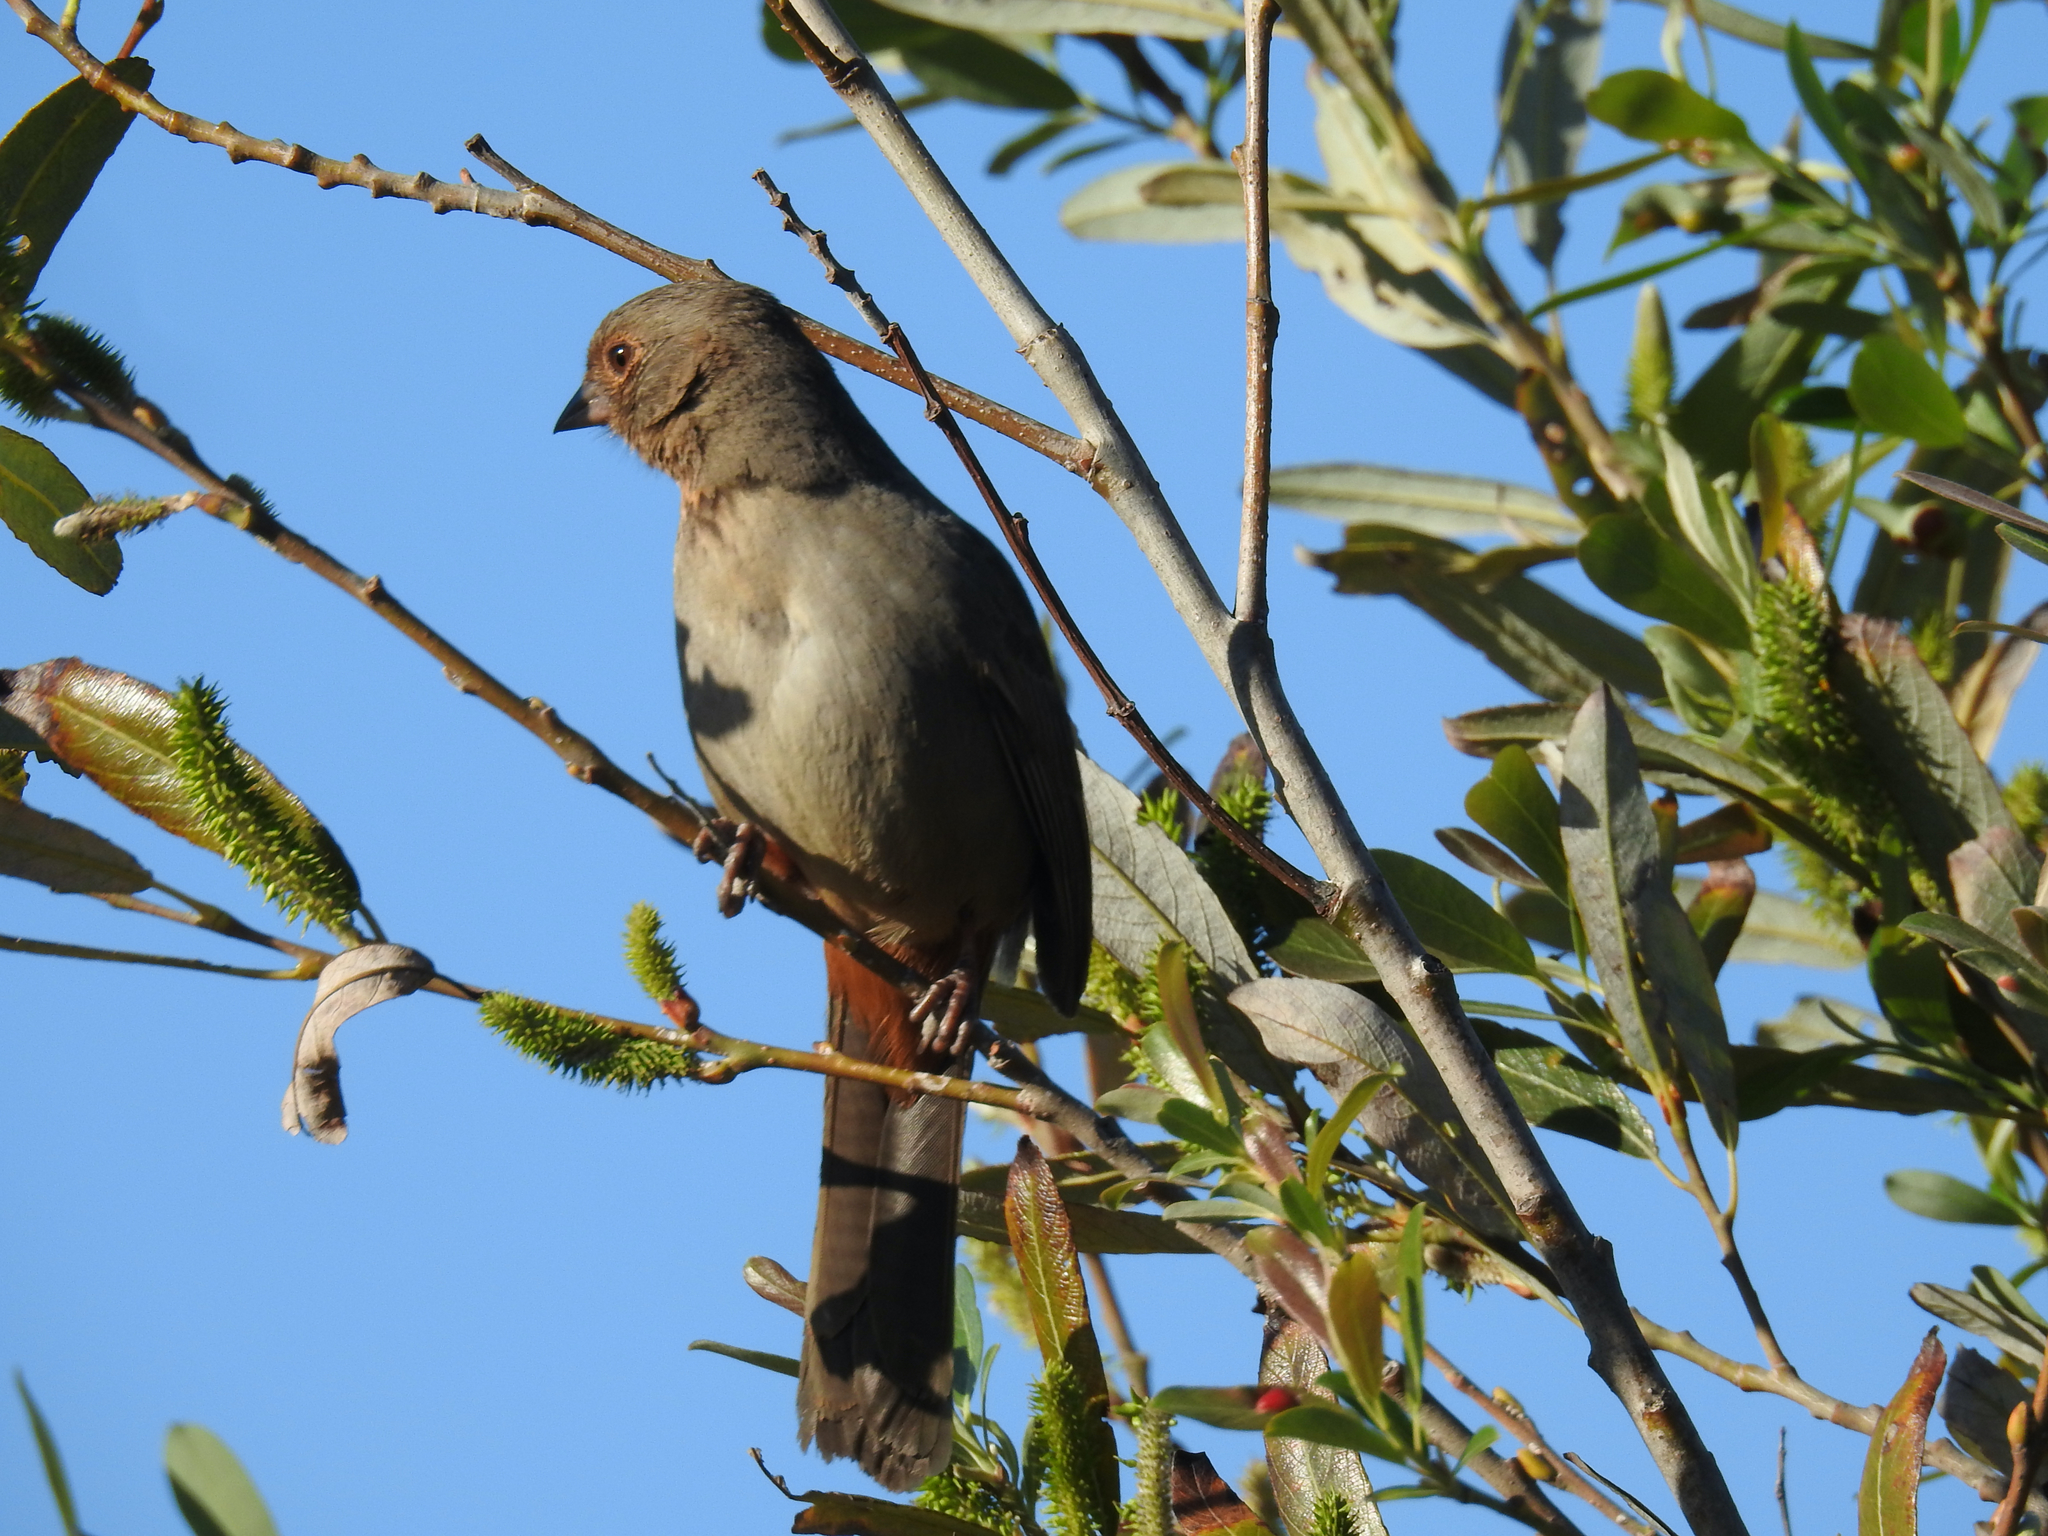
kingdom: Animalia
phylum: Chordata
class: Aves
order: Passeriformes
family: Passerellidae
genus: Melozone
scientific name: Melozone crissalis
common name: California towhee
